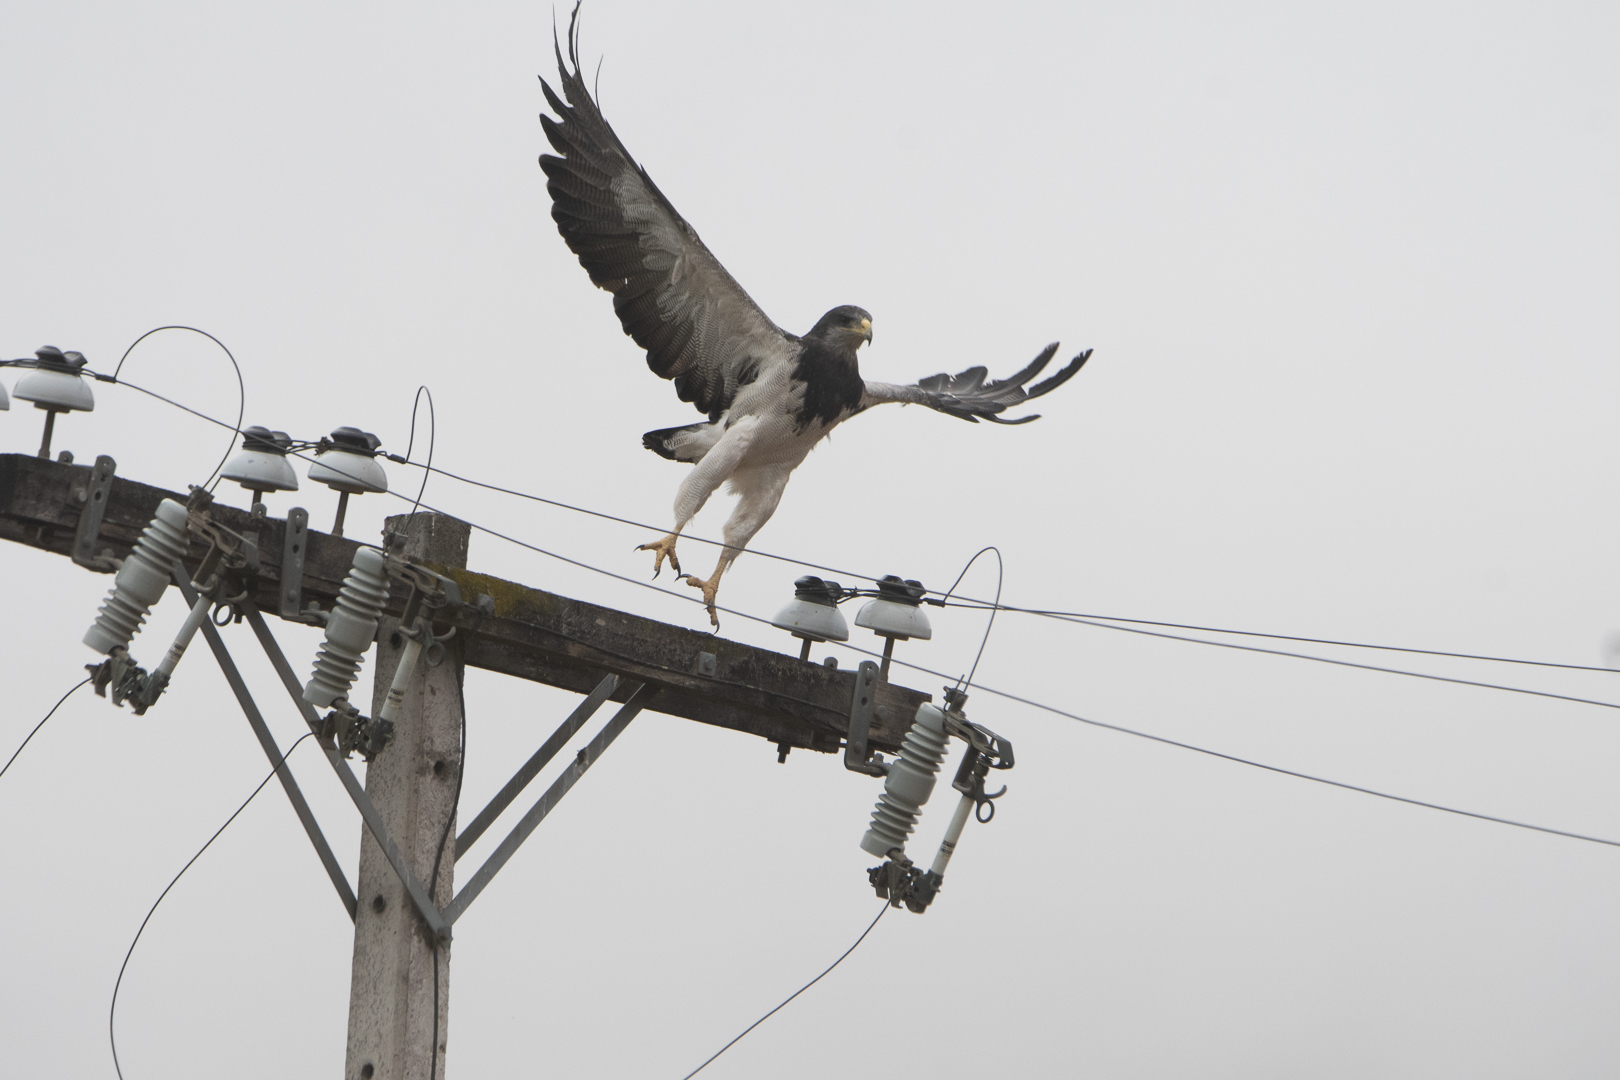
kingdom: Animalia
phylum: Chordata
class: Aves
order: Accipitriformes
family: Accipitridae
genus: Geranoaetus
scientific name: Geranoaetus melanoleucus
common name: Black-chested buzzard-eagle
